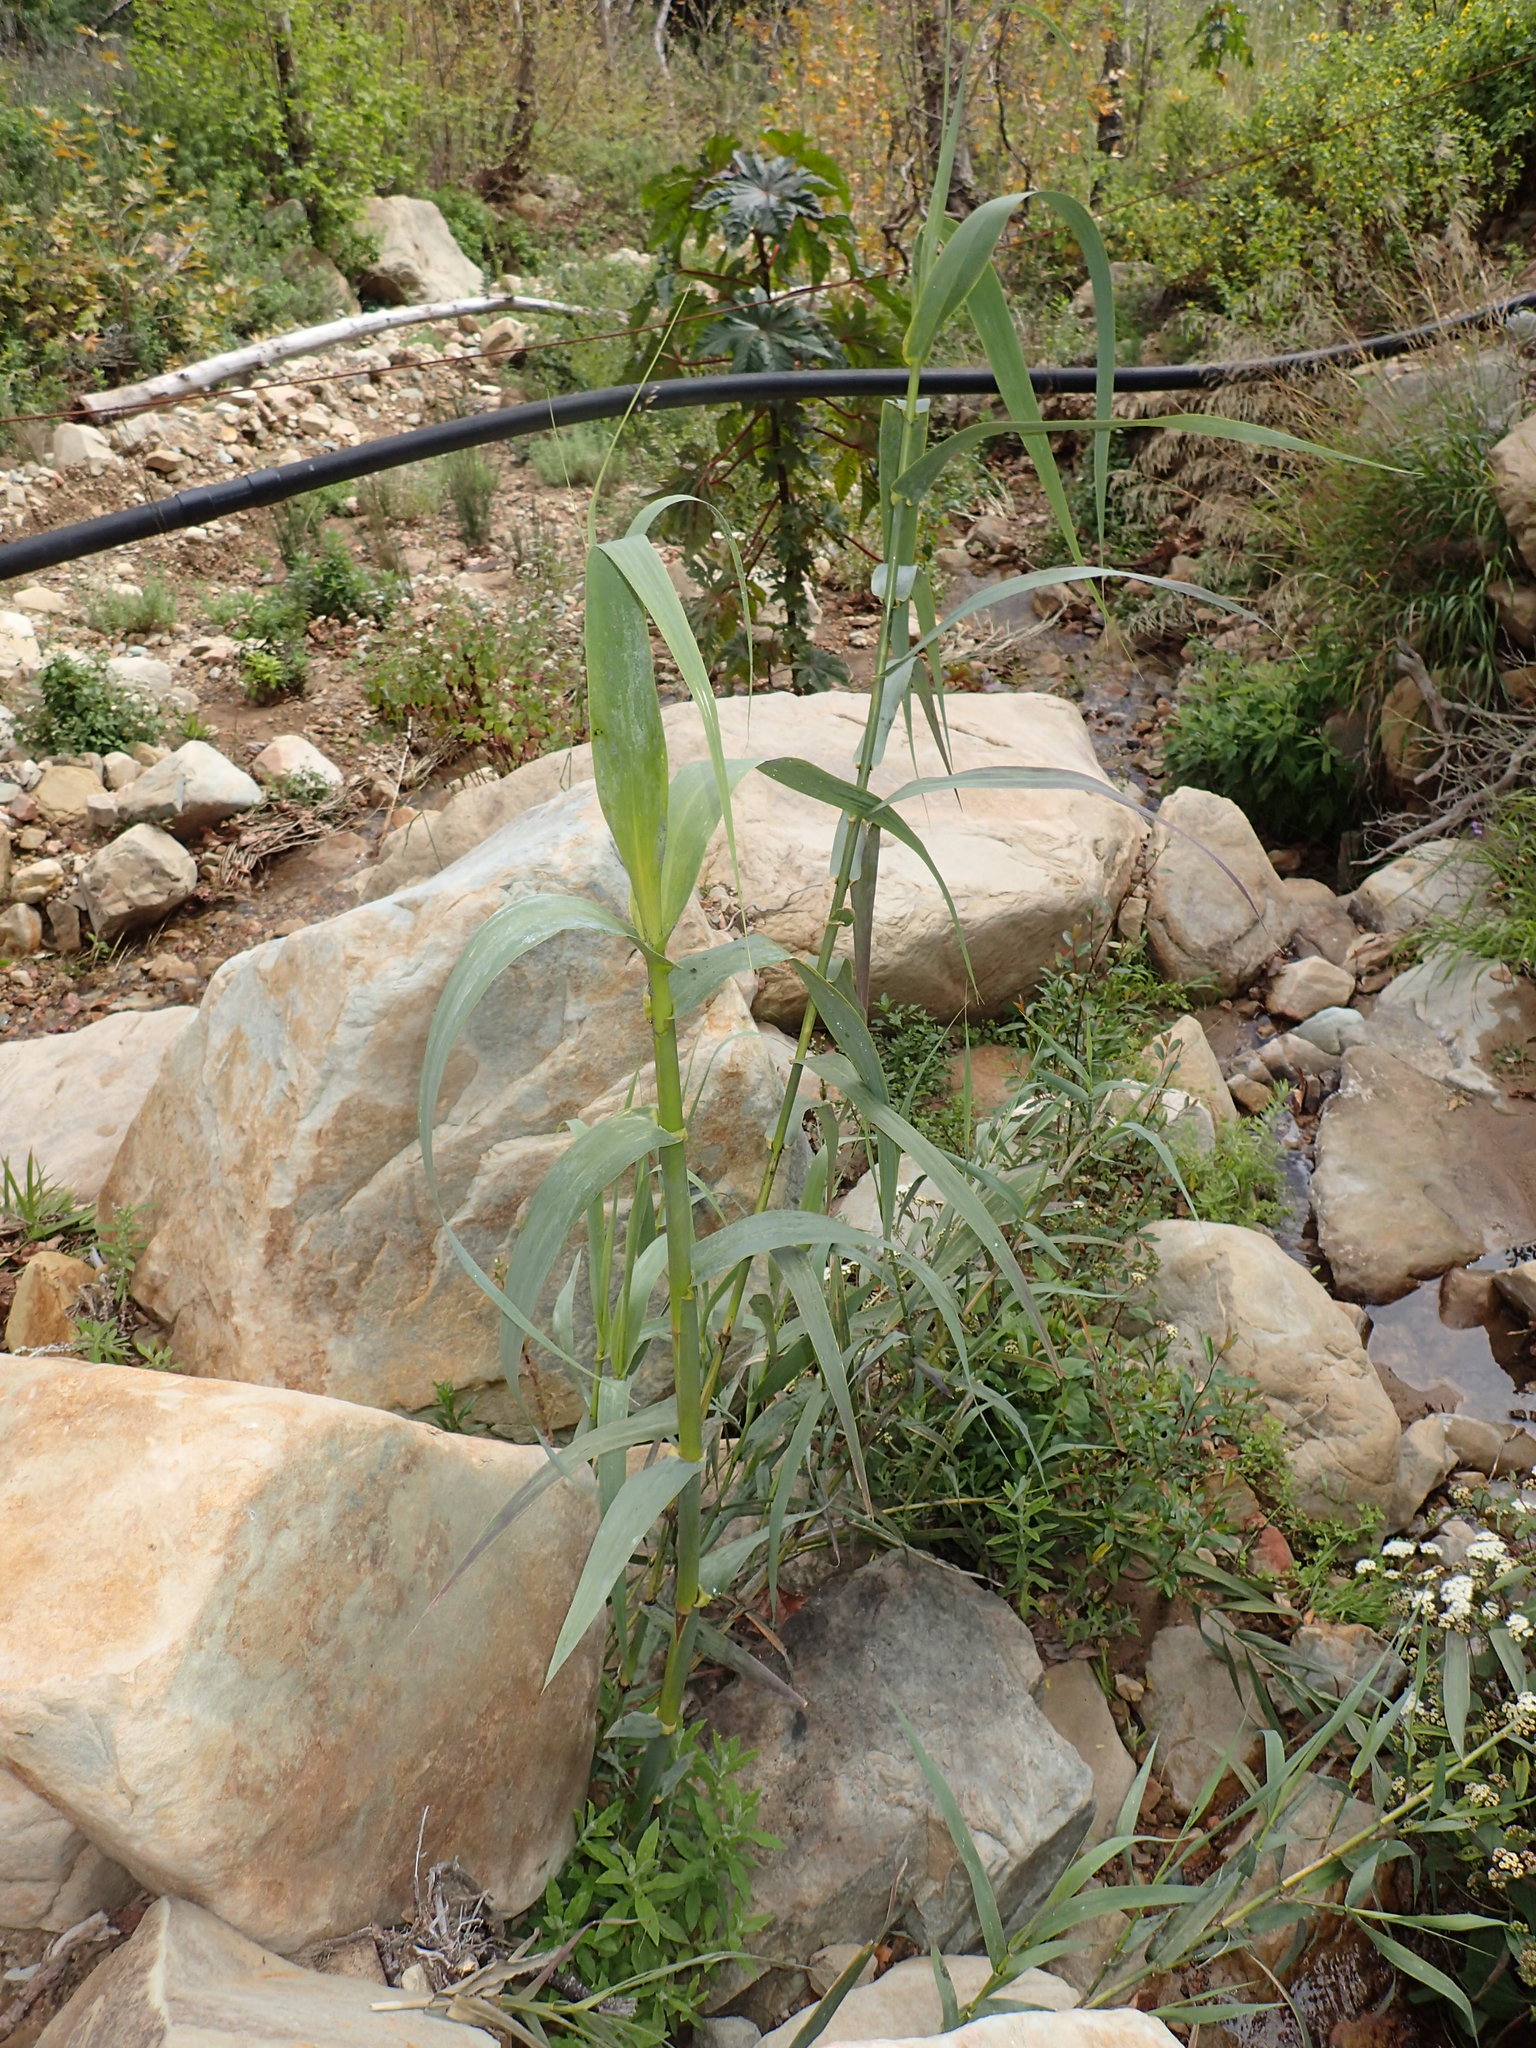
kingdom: Plantae
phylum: Tracheophyta
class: Liliopsida
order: Poales
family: Poaceae
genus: Arundo
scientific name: Arundo donax
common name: Giant reed
